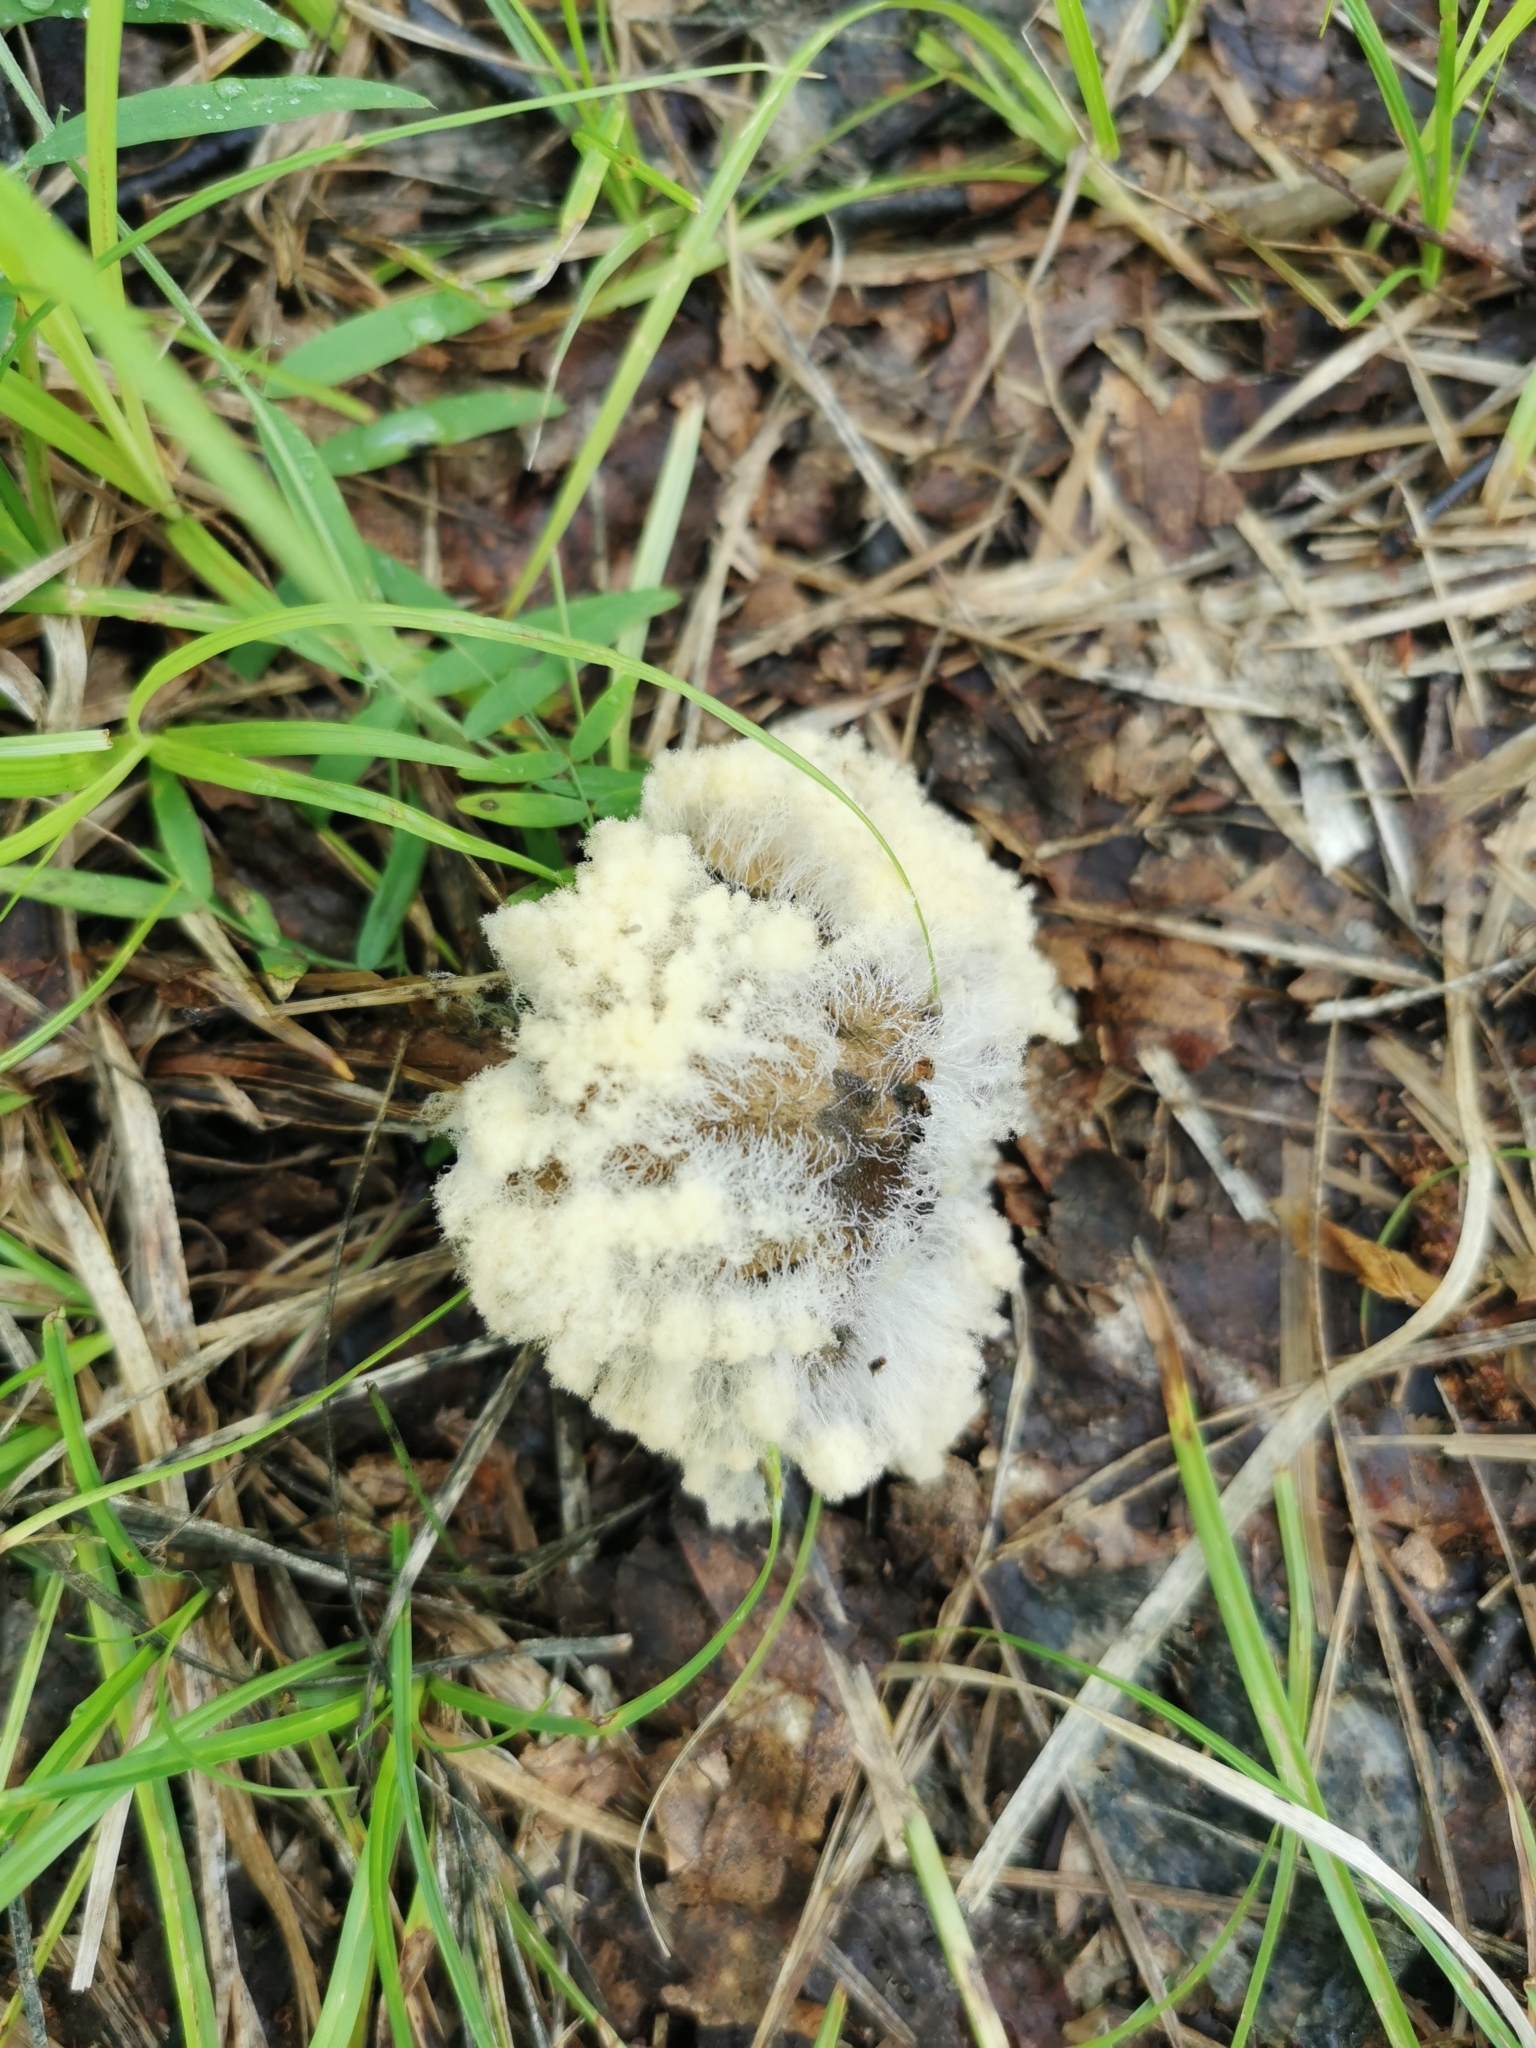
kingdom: Fungi
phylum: Mucoromycota
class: Mucoromycetes
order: Mucorales
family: Rhizopodaceae
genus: Syzygites
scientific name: Syzygites megalocarpus
